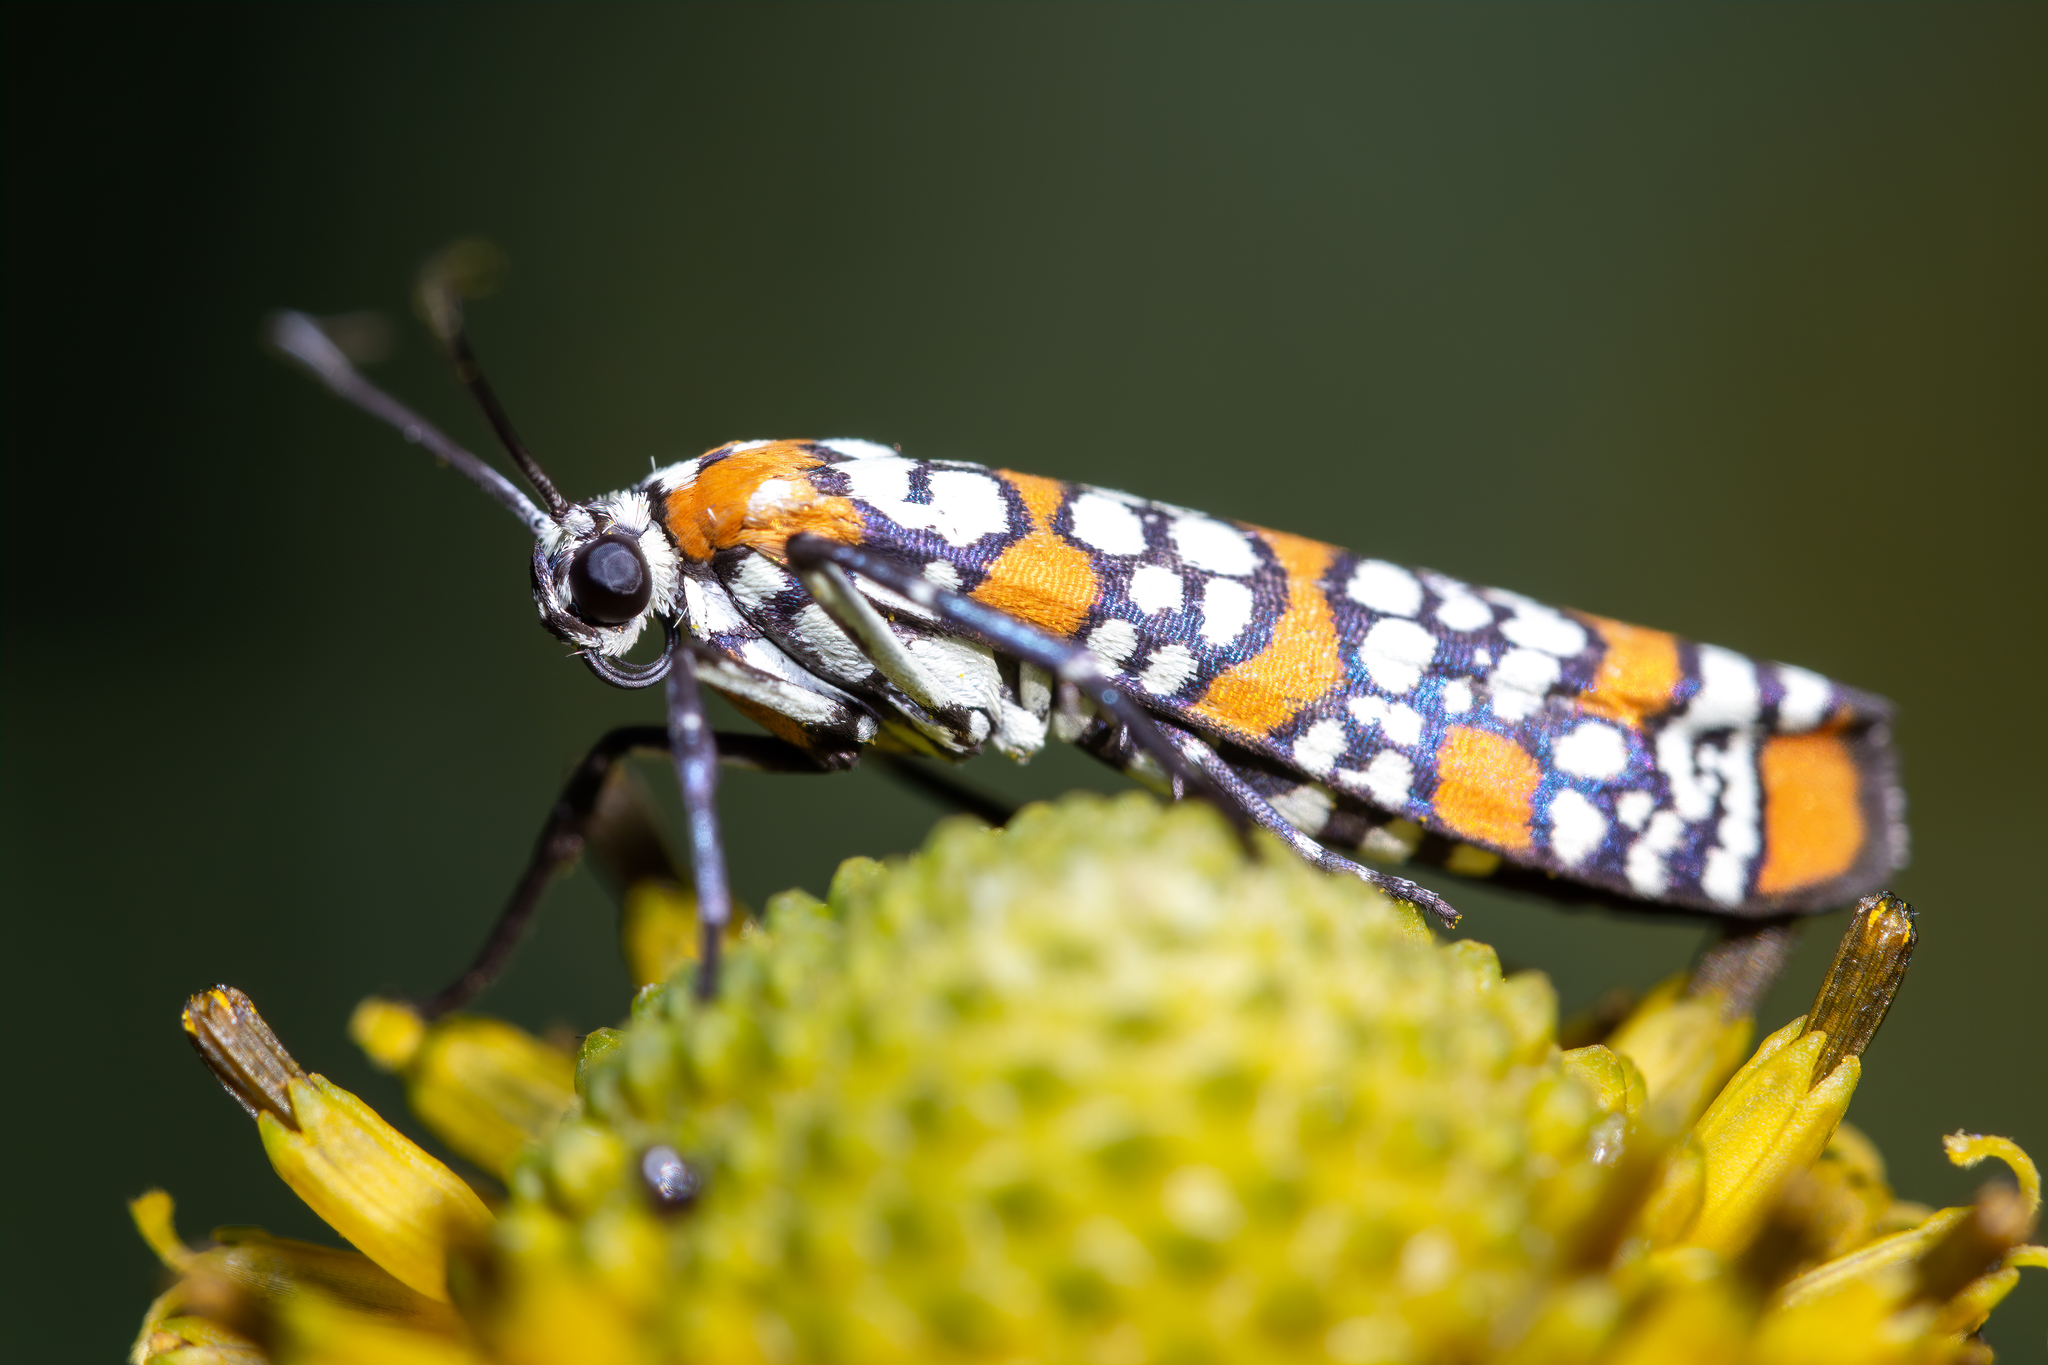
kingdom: Animalia
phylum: Arthropoda
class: Insecta
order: Lepidoptera
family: Attevidae
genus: Atteva
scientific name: Atteva punctella
